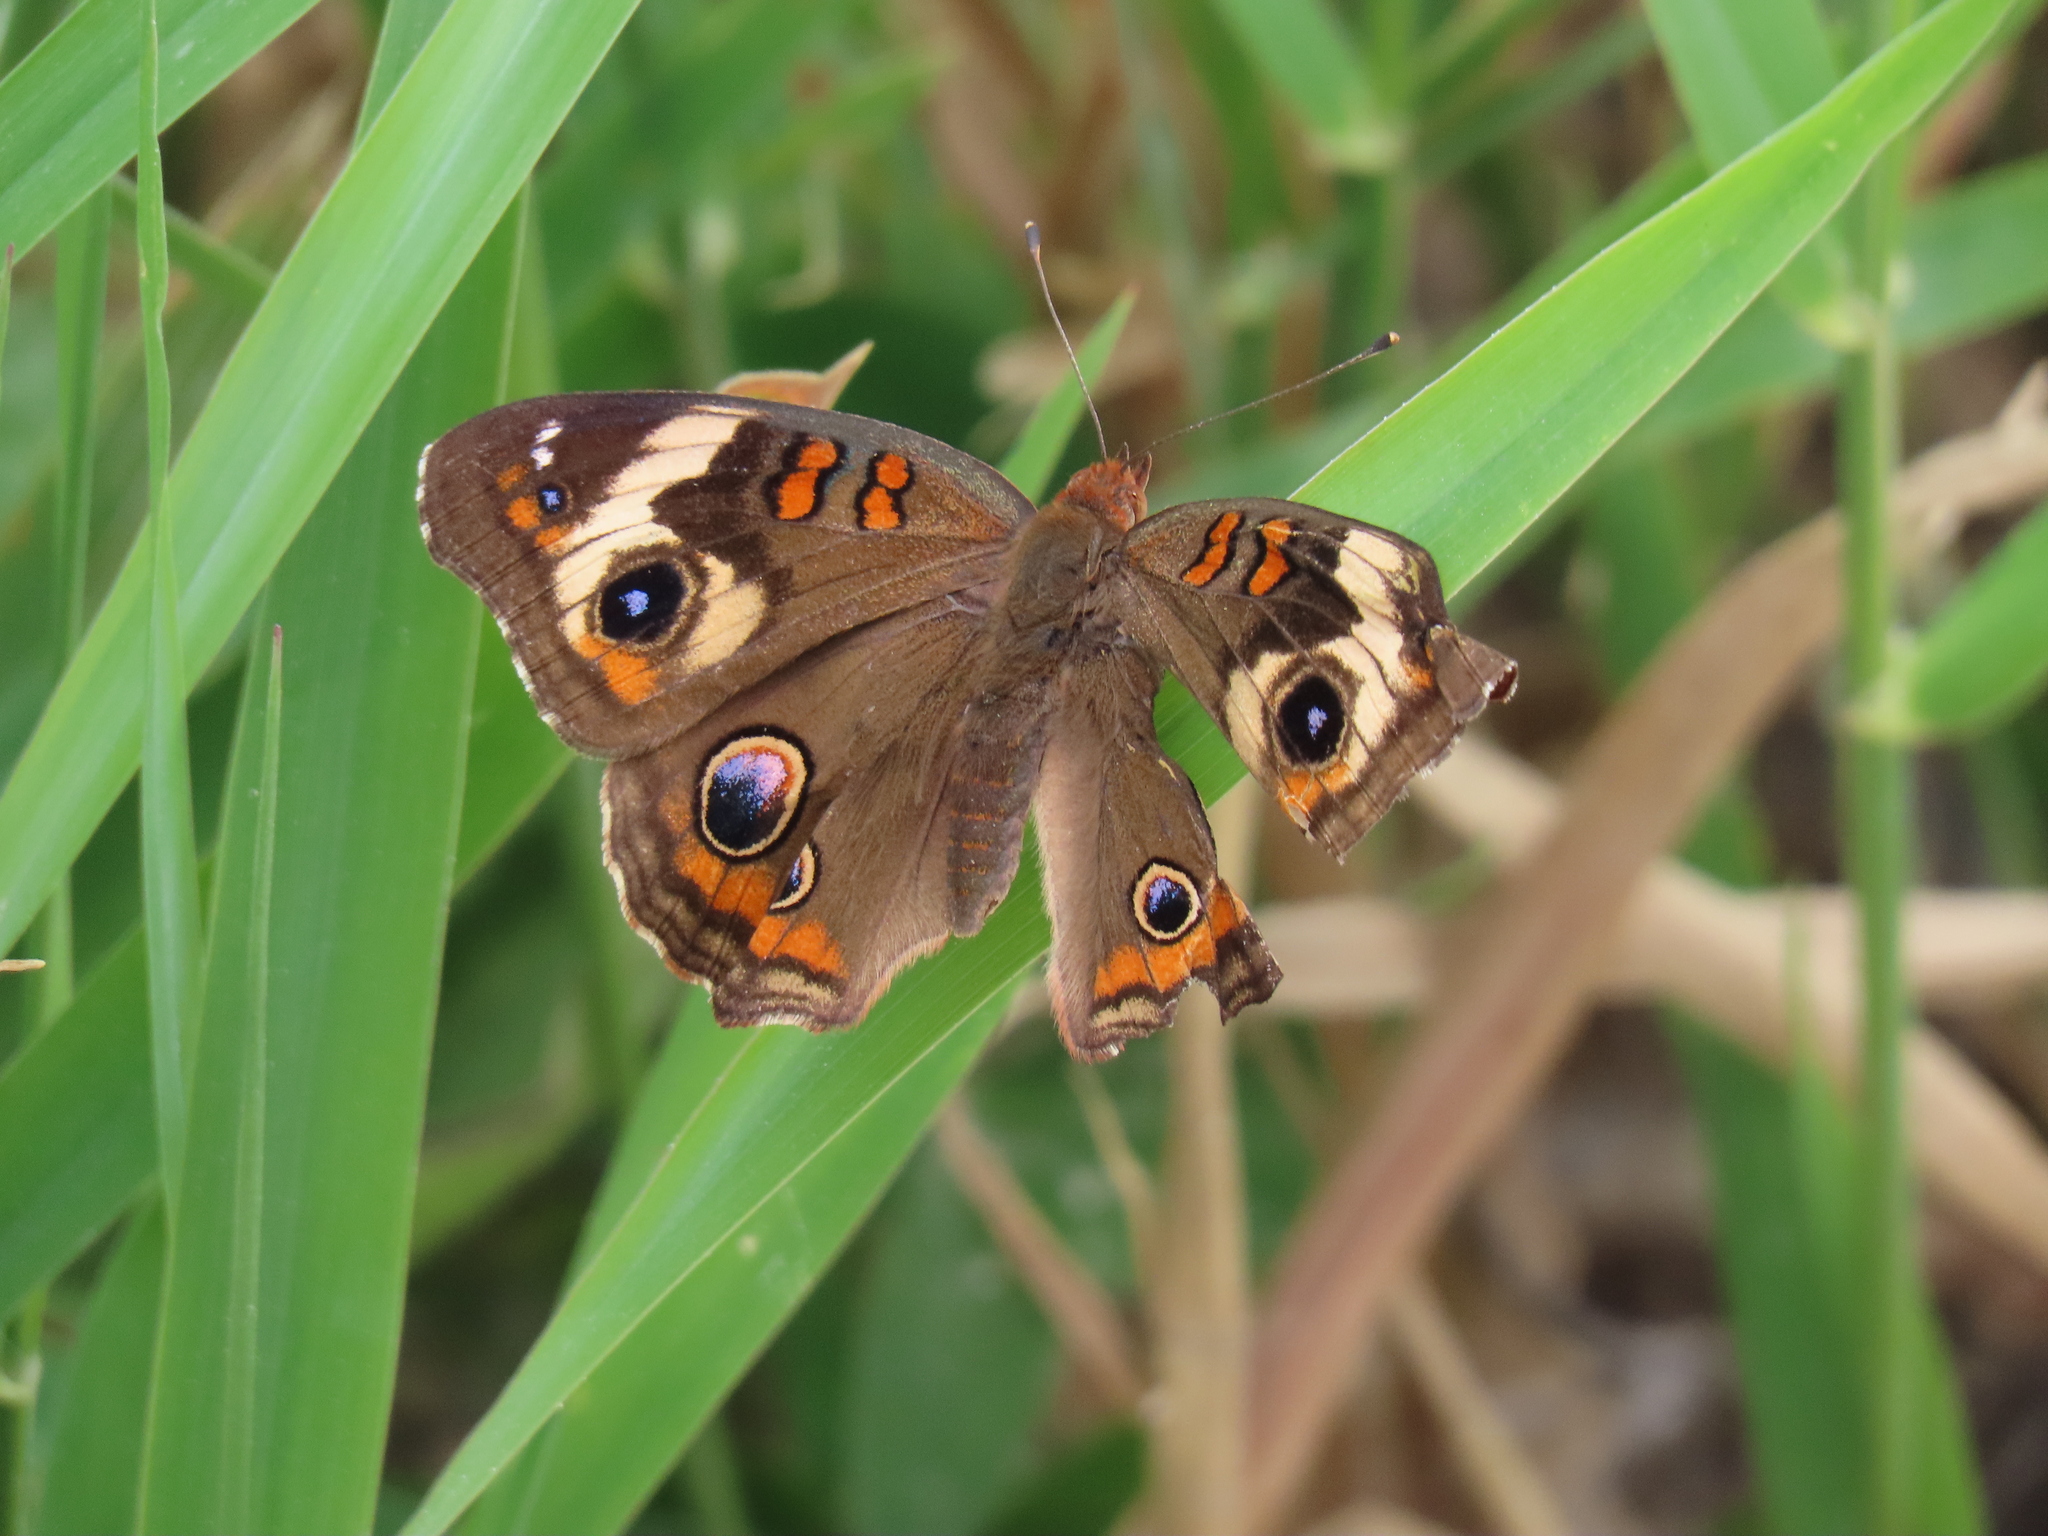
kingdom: Animalia
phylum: Arthropoda
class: Insecta
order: Lepidoptera
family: Nymphalidae
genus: Junonia
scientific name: Junonia coenia
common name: Common buckeye
